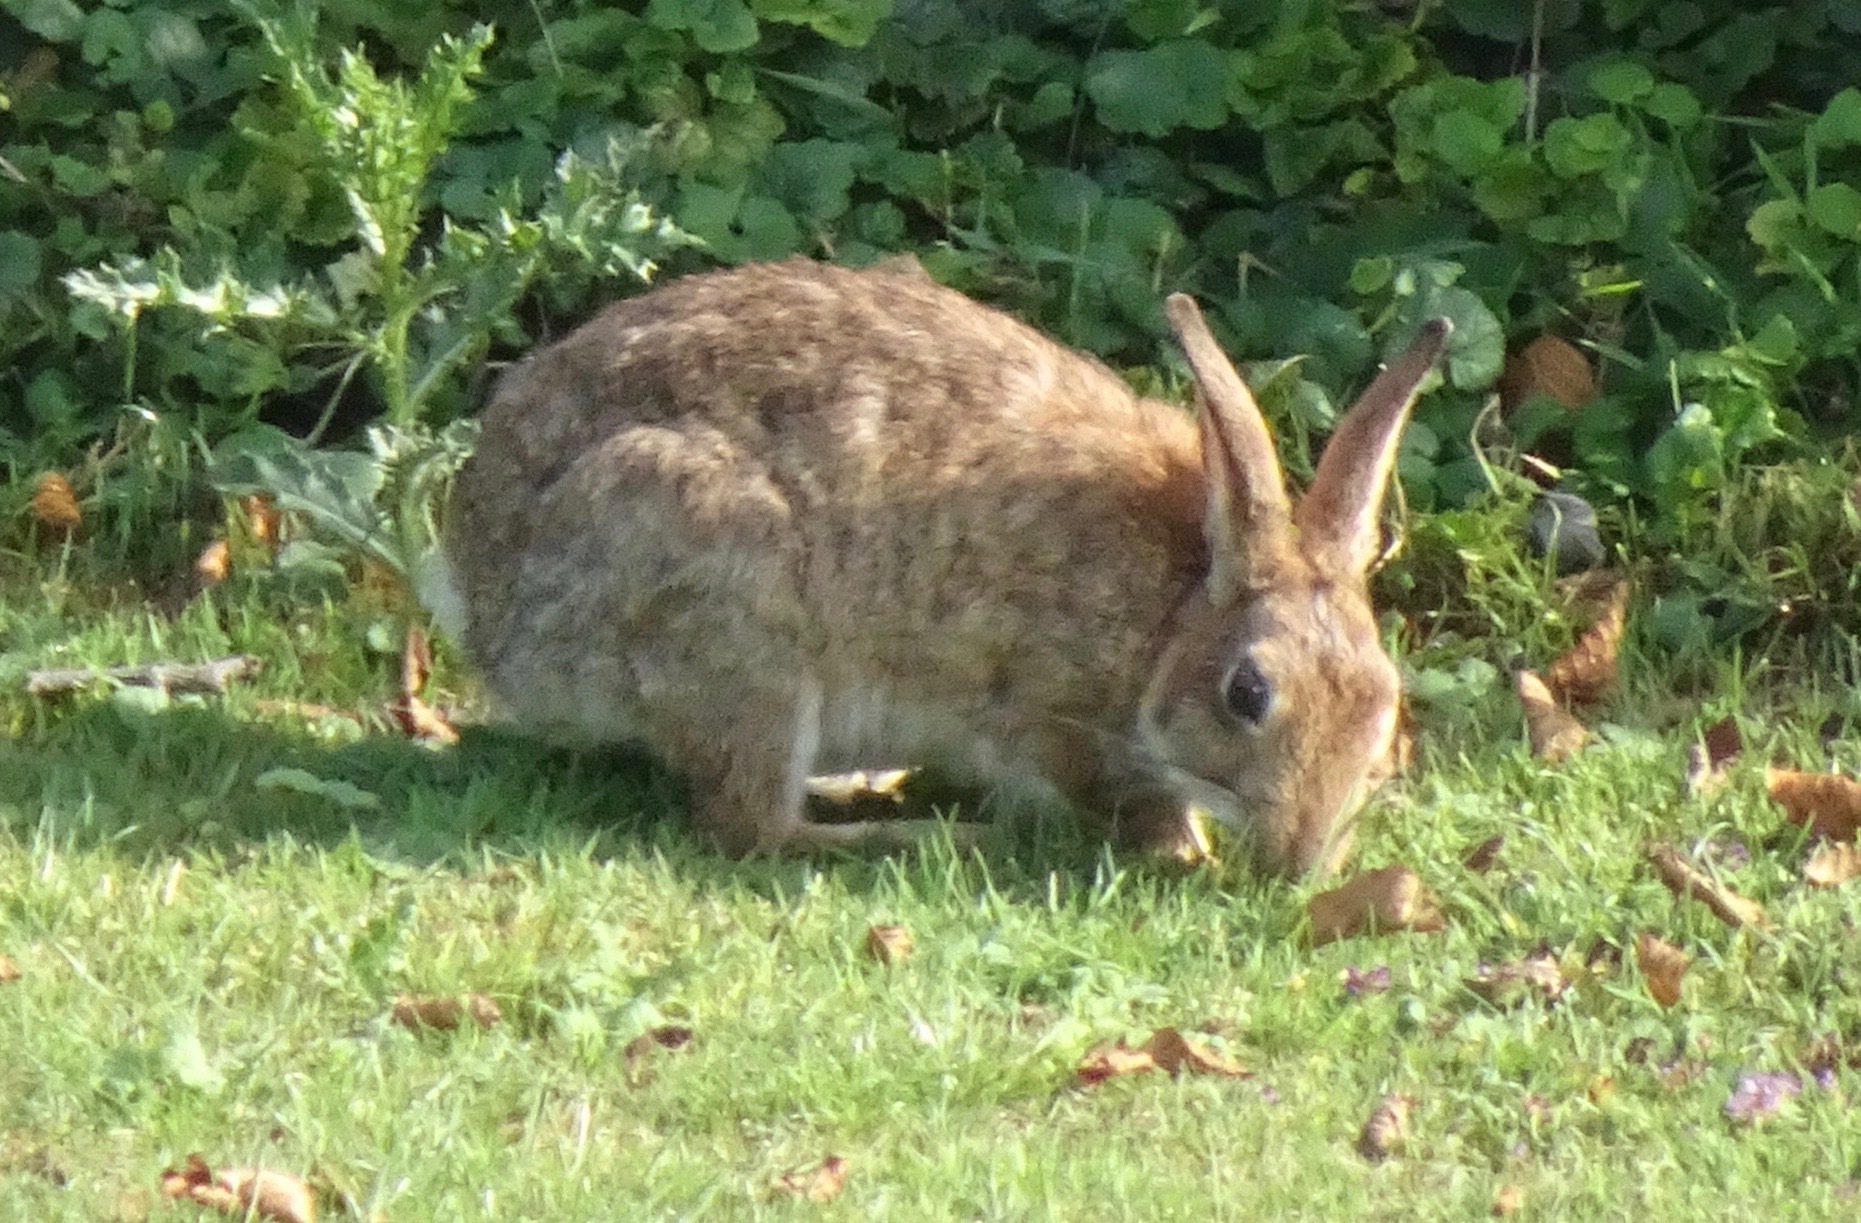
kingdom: Animalia
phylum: Chordata
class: Mammalia
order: Lagomorpha
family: Leporidae
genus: Oryctolagus
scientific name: Oryctolagus cuniculus
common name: European rabbit
